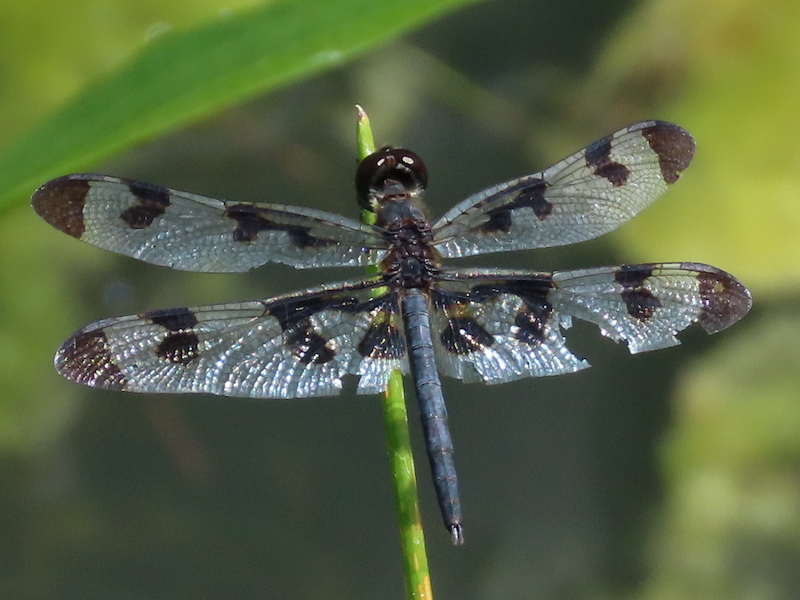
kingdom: Animalia
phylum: Arthropoda
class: Insecta
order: Odonata
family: Libellulidae
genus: Celithemis
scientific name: Celithemis fasciata
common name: Banded pennant
